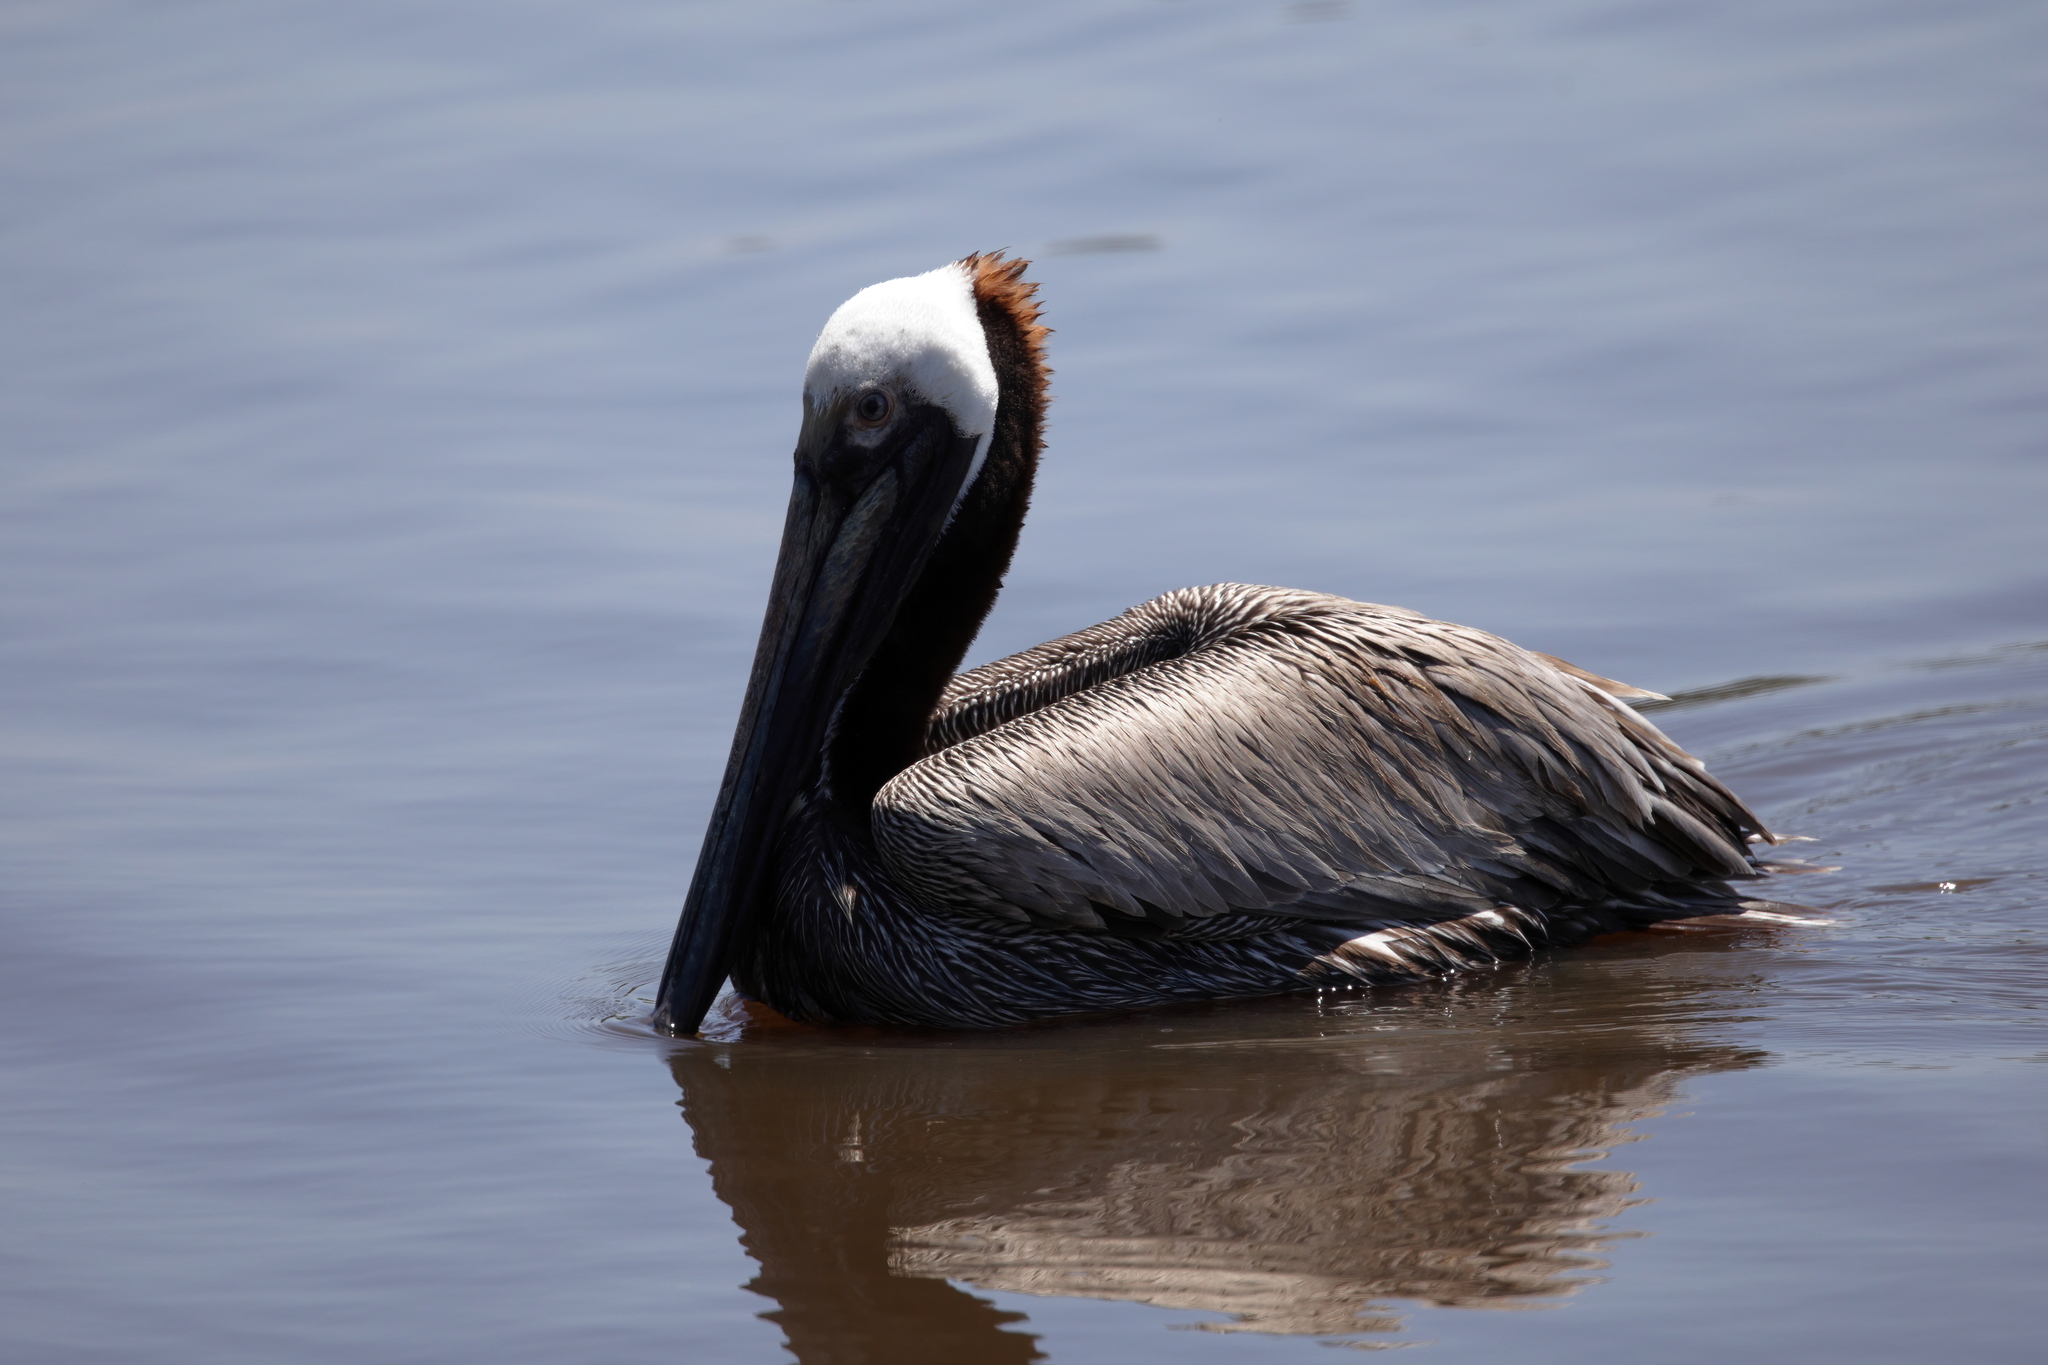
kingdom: Animalia
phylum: Chordata
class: Aves
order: Pelecaniformes
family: Pelecanidae
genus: Pelecanus
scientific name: Pelecanus occidentalis
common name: Brown pelican
